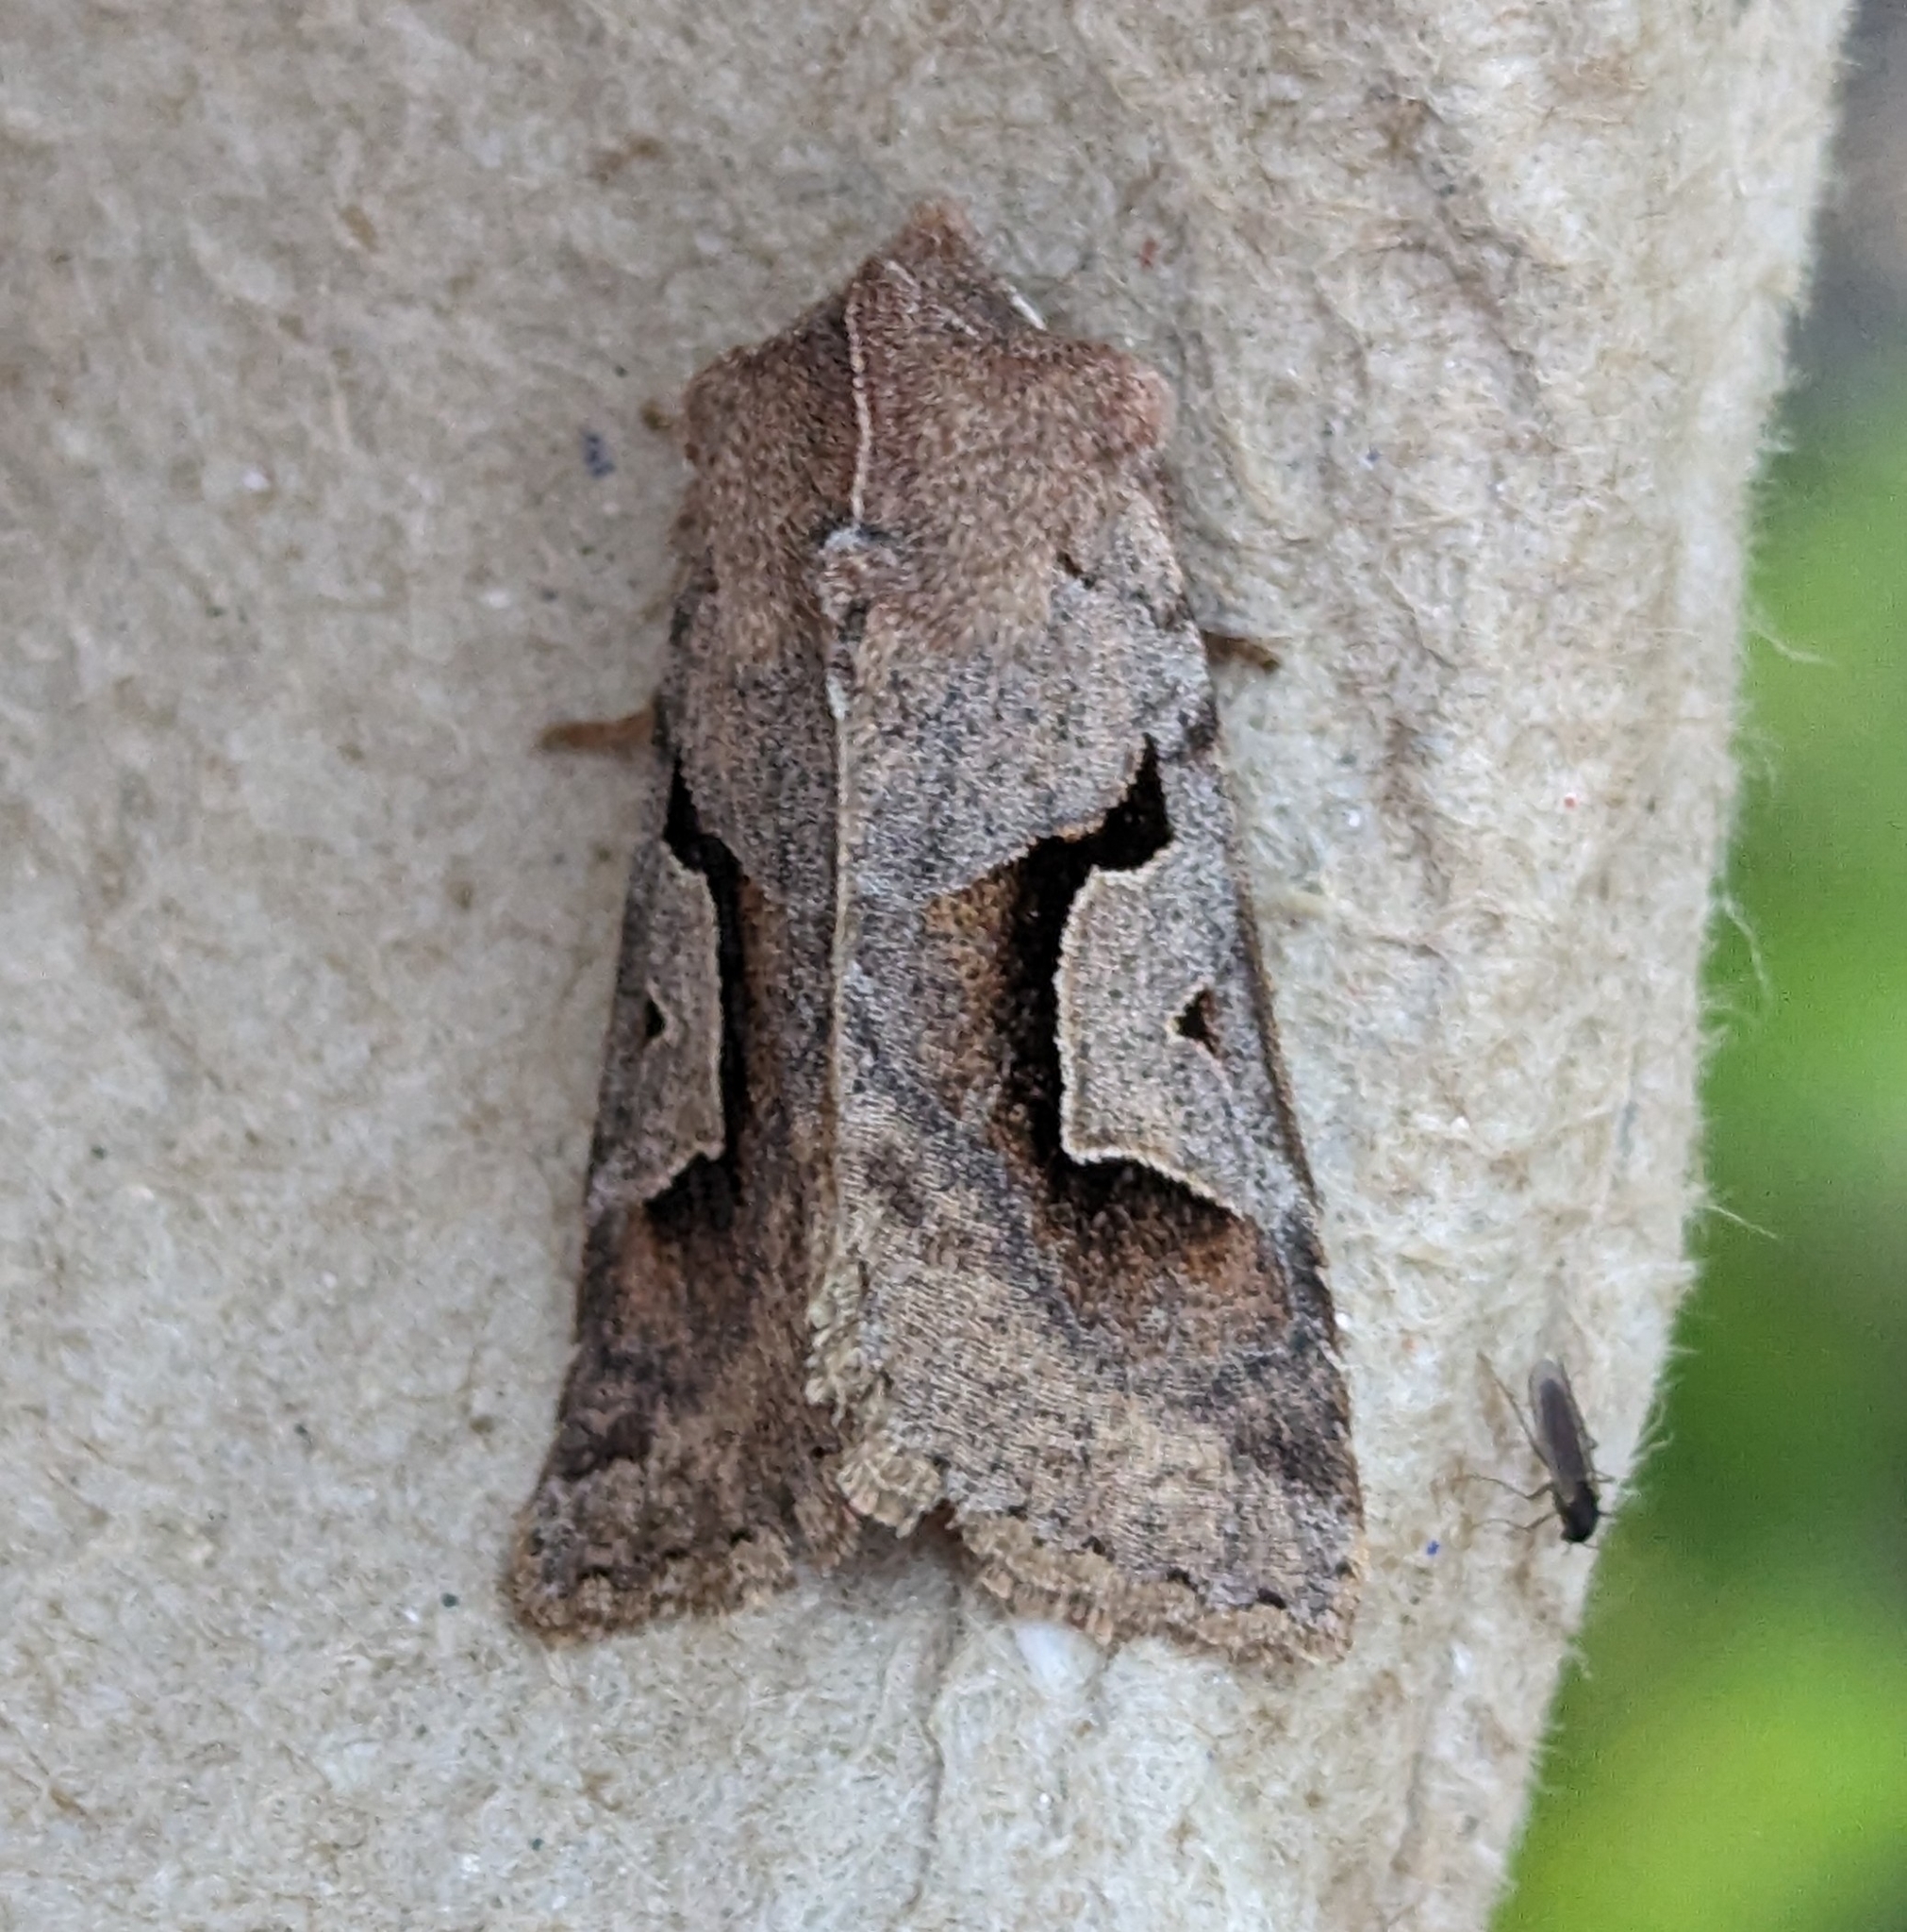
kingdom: Animalia
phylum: Arthropoda
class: Insecta
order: Lepidoptera
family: Noctuidae
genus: Acerra
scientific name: Acerra normalis
